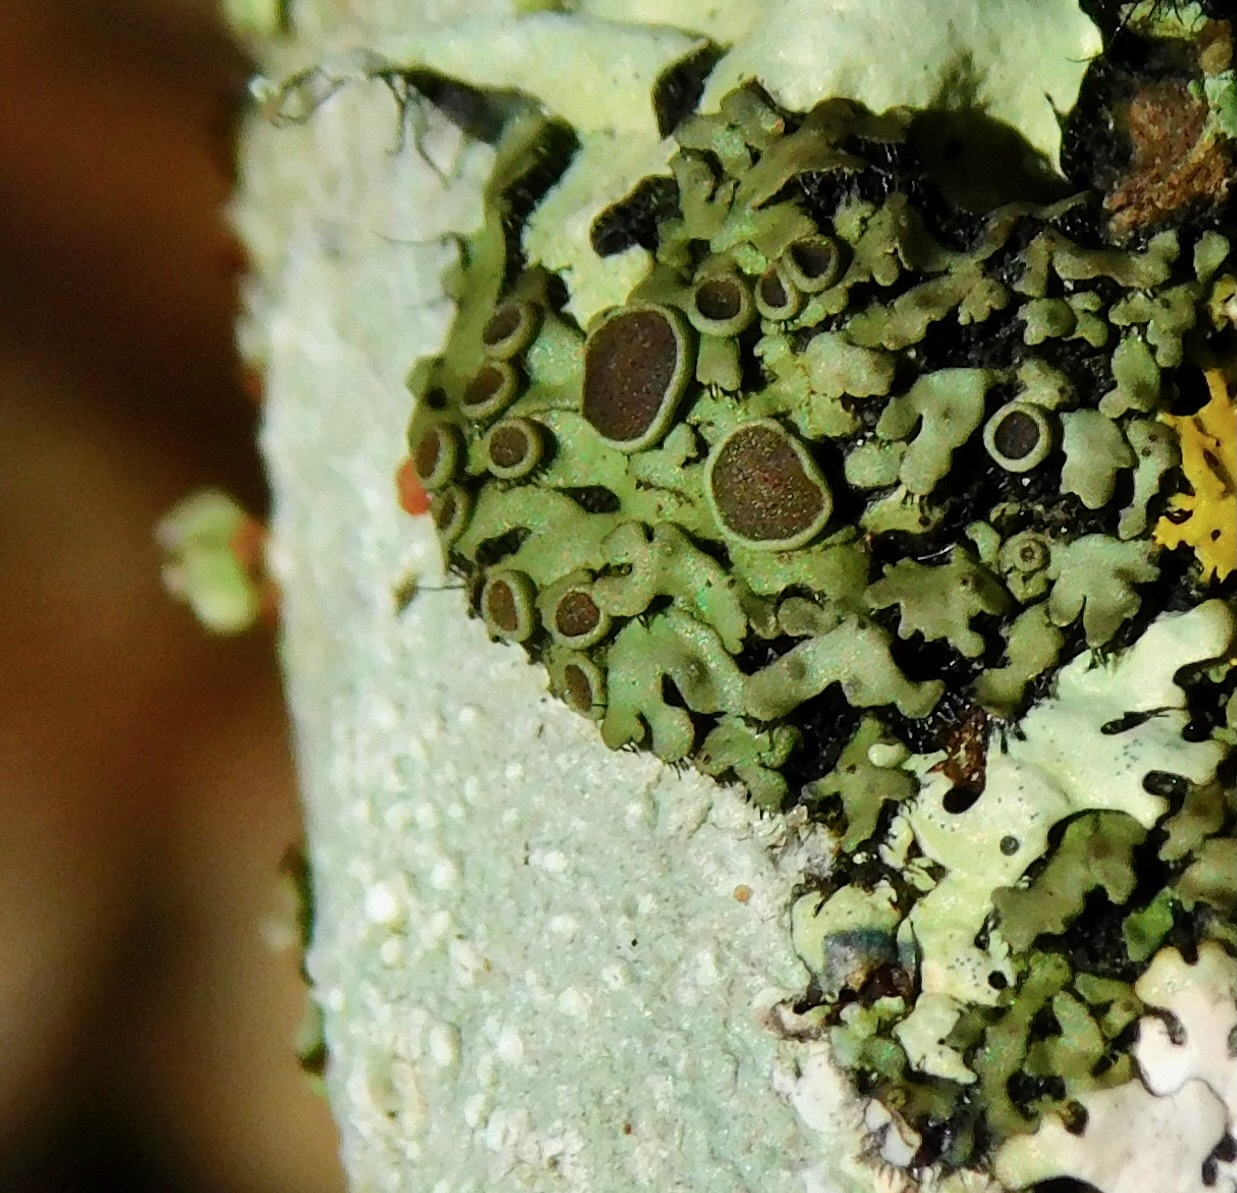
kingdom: Fungi
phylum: Ascomycota
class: Lecanoromycetes
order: Caliciales
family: Physciaceae
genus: Phaeophyscia
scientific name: Phaeophyscia ciliata
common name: Smooth shadow lichen
